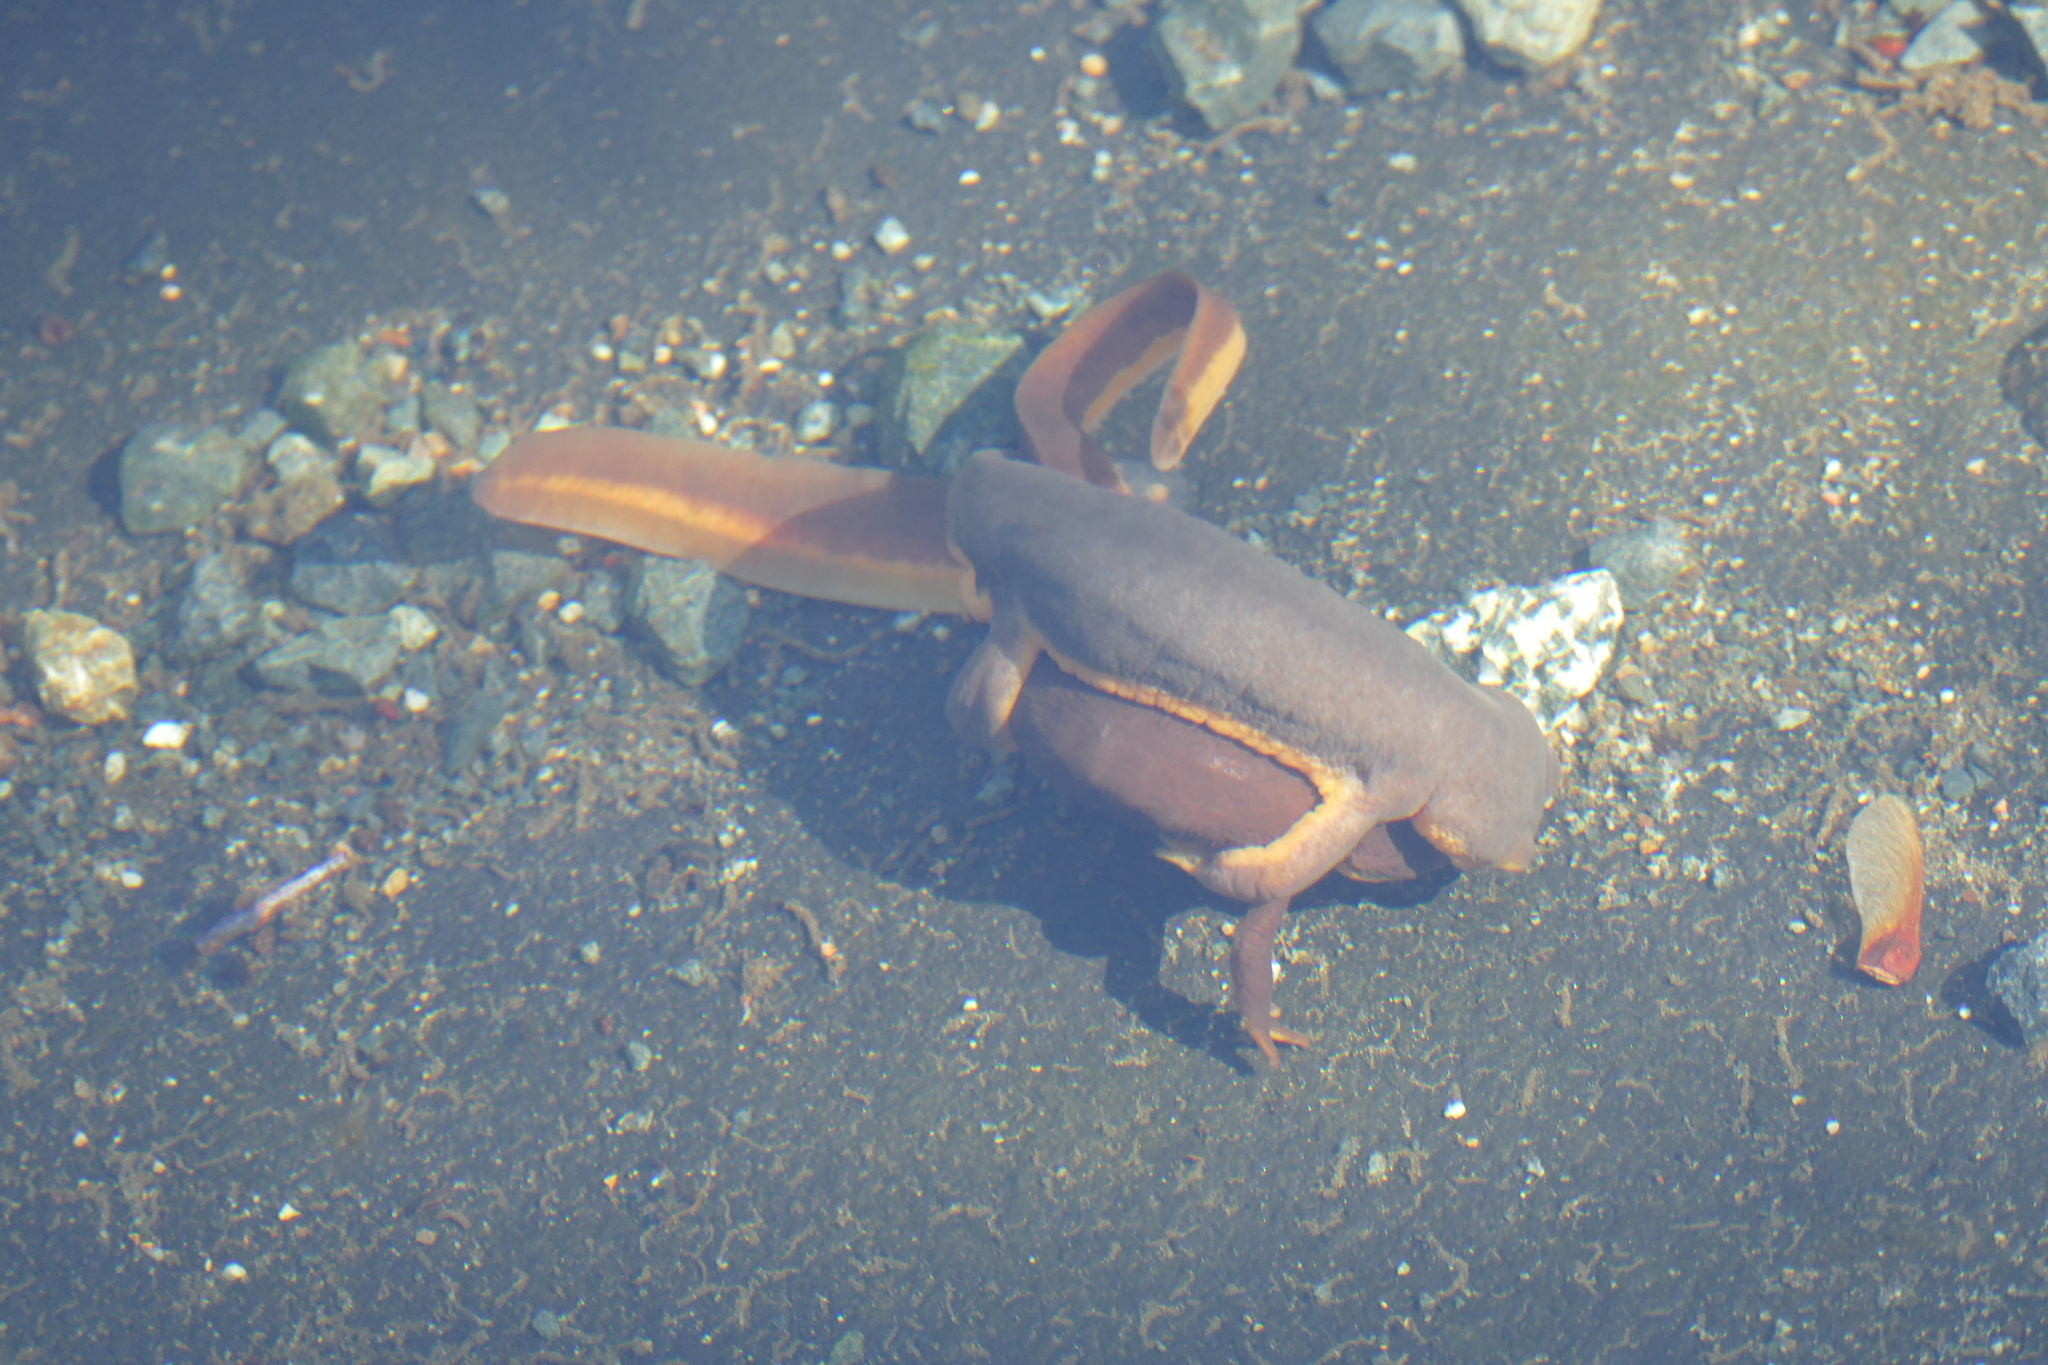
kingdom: Animalia
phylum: Chordata
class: Amphibia
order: Caudata
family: Salamandridae
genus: Taricha
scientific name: Taricha granulosa
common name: Roughskin newt
